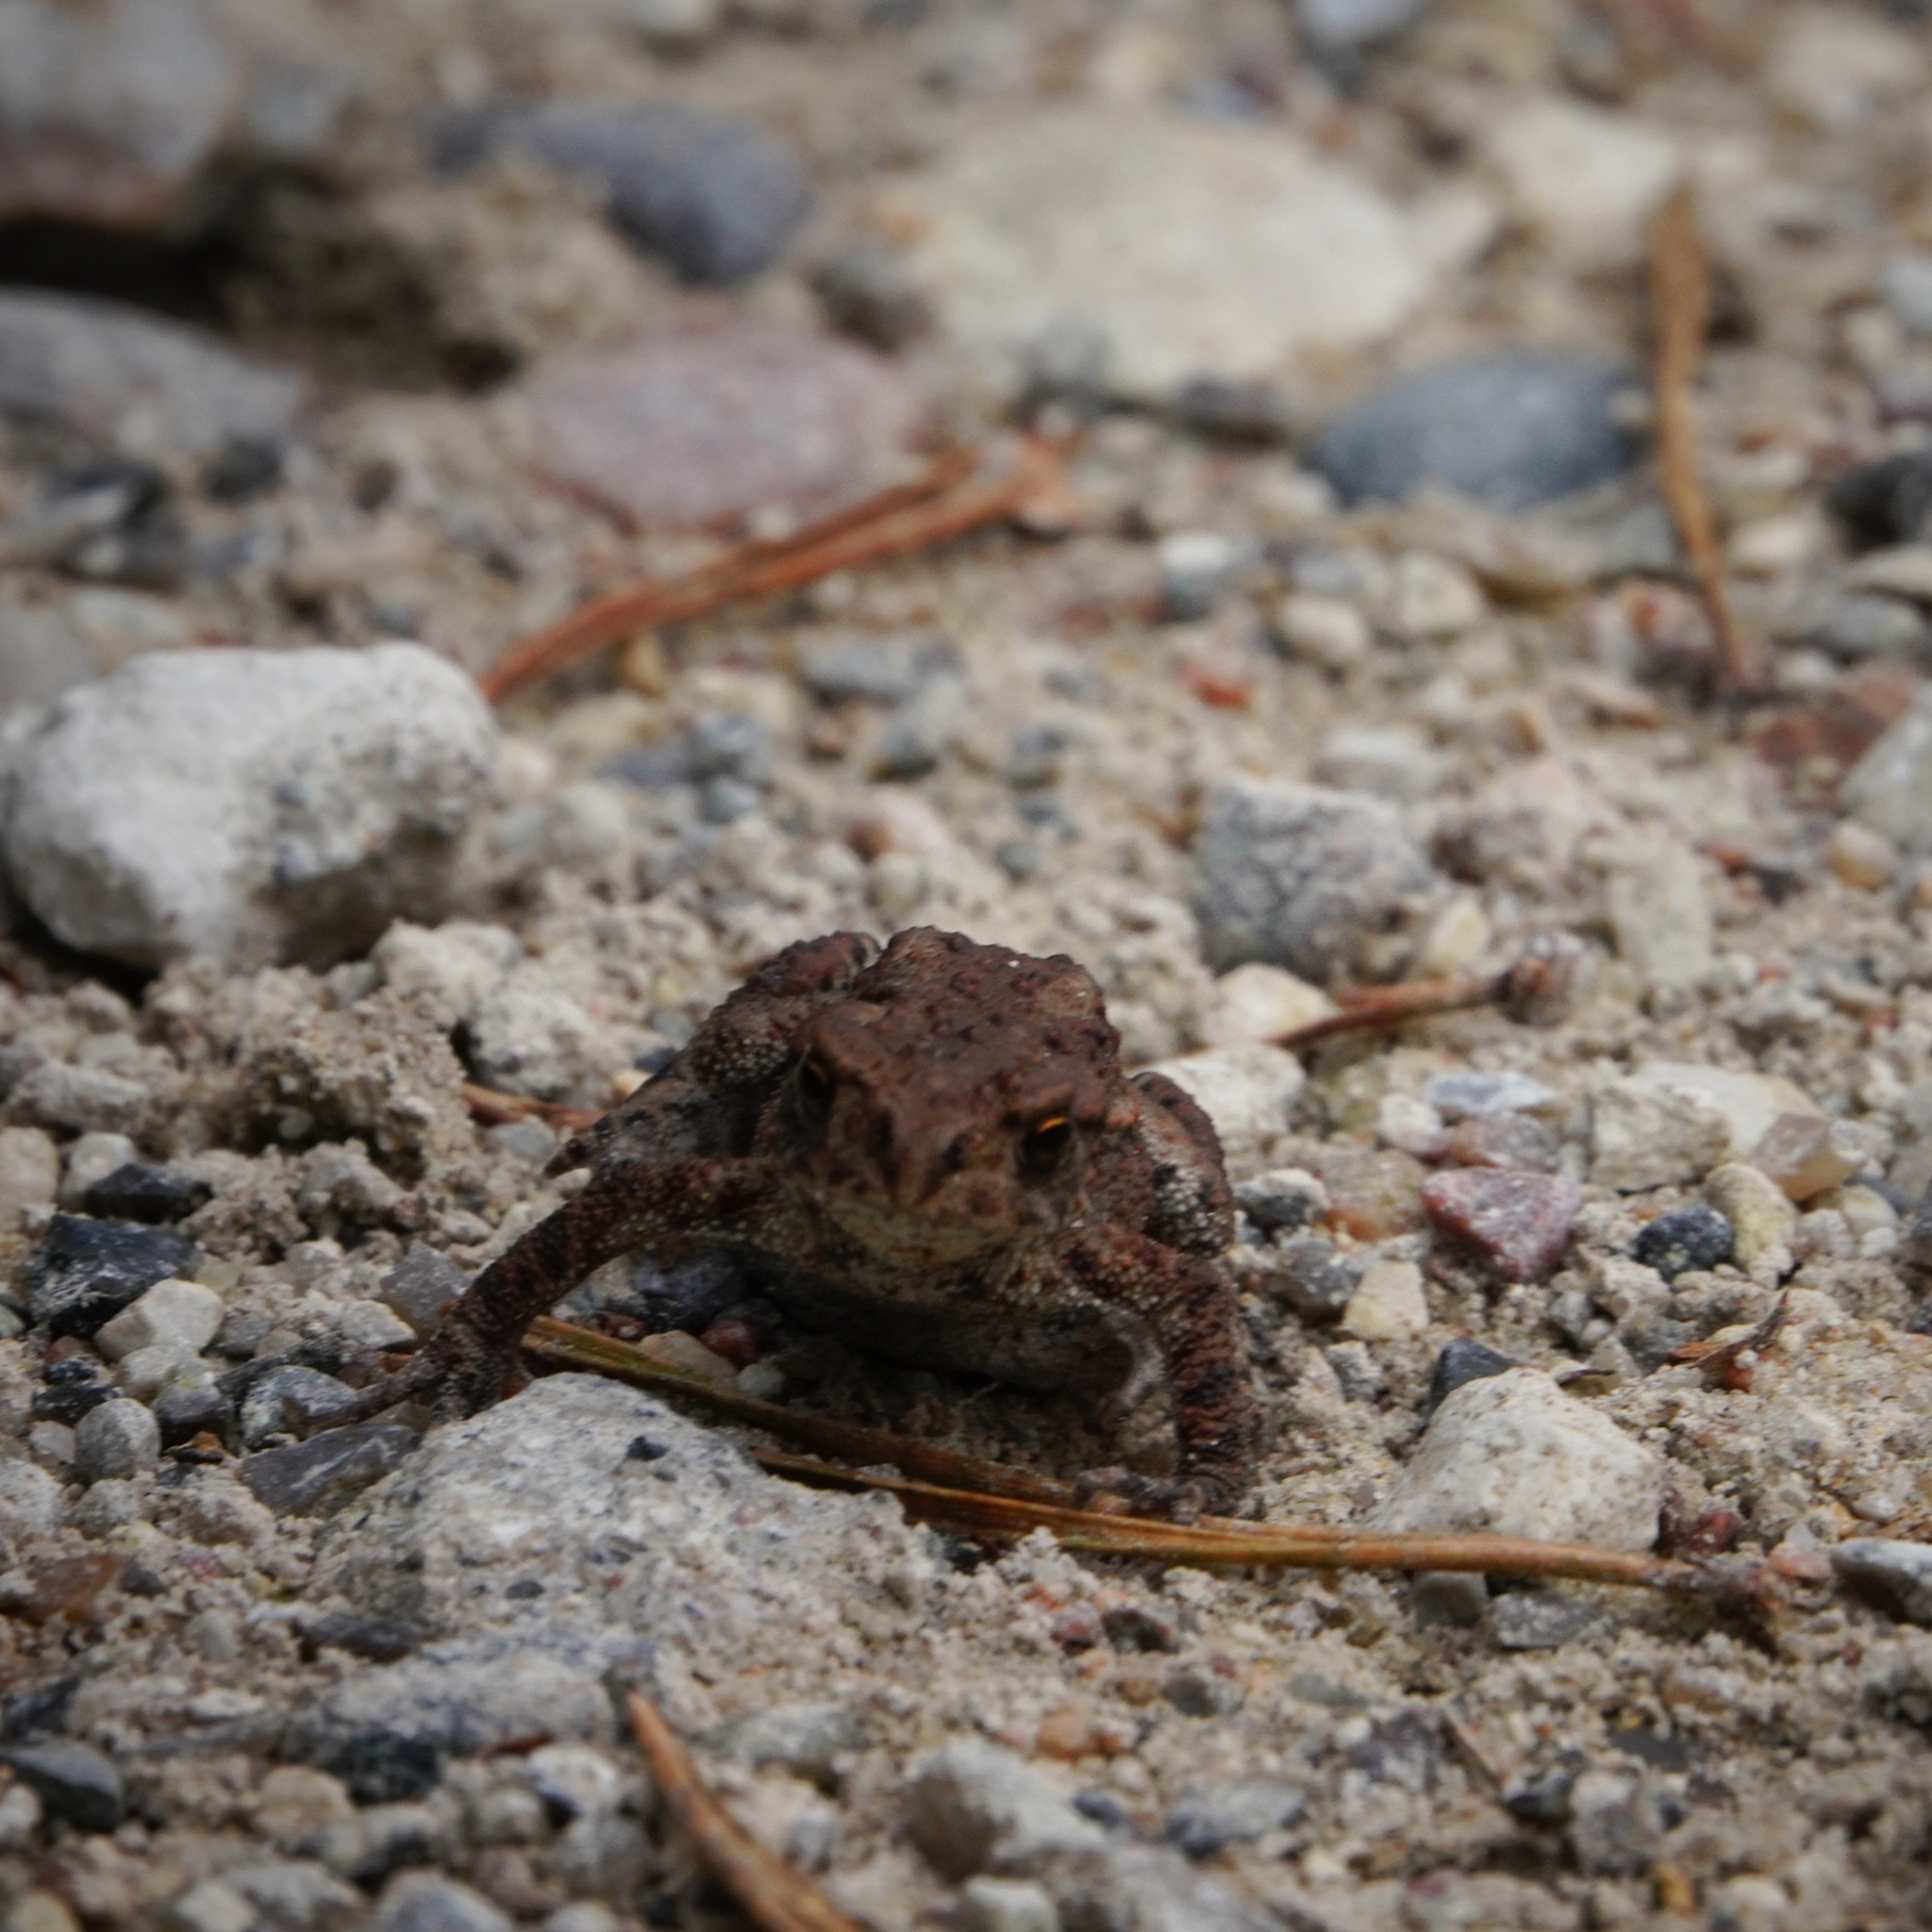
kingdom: Animalia
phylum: Chordata
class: Amphibia
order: Anura
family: Bufonidae
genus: Bufo
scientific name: Bufo bufo
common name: Common toad
